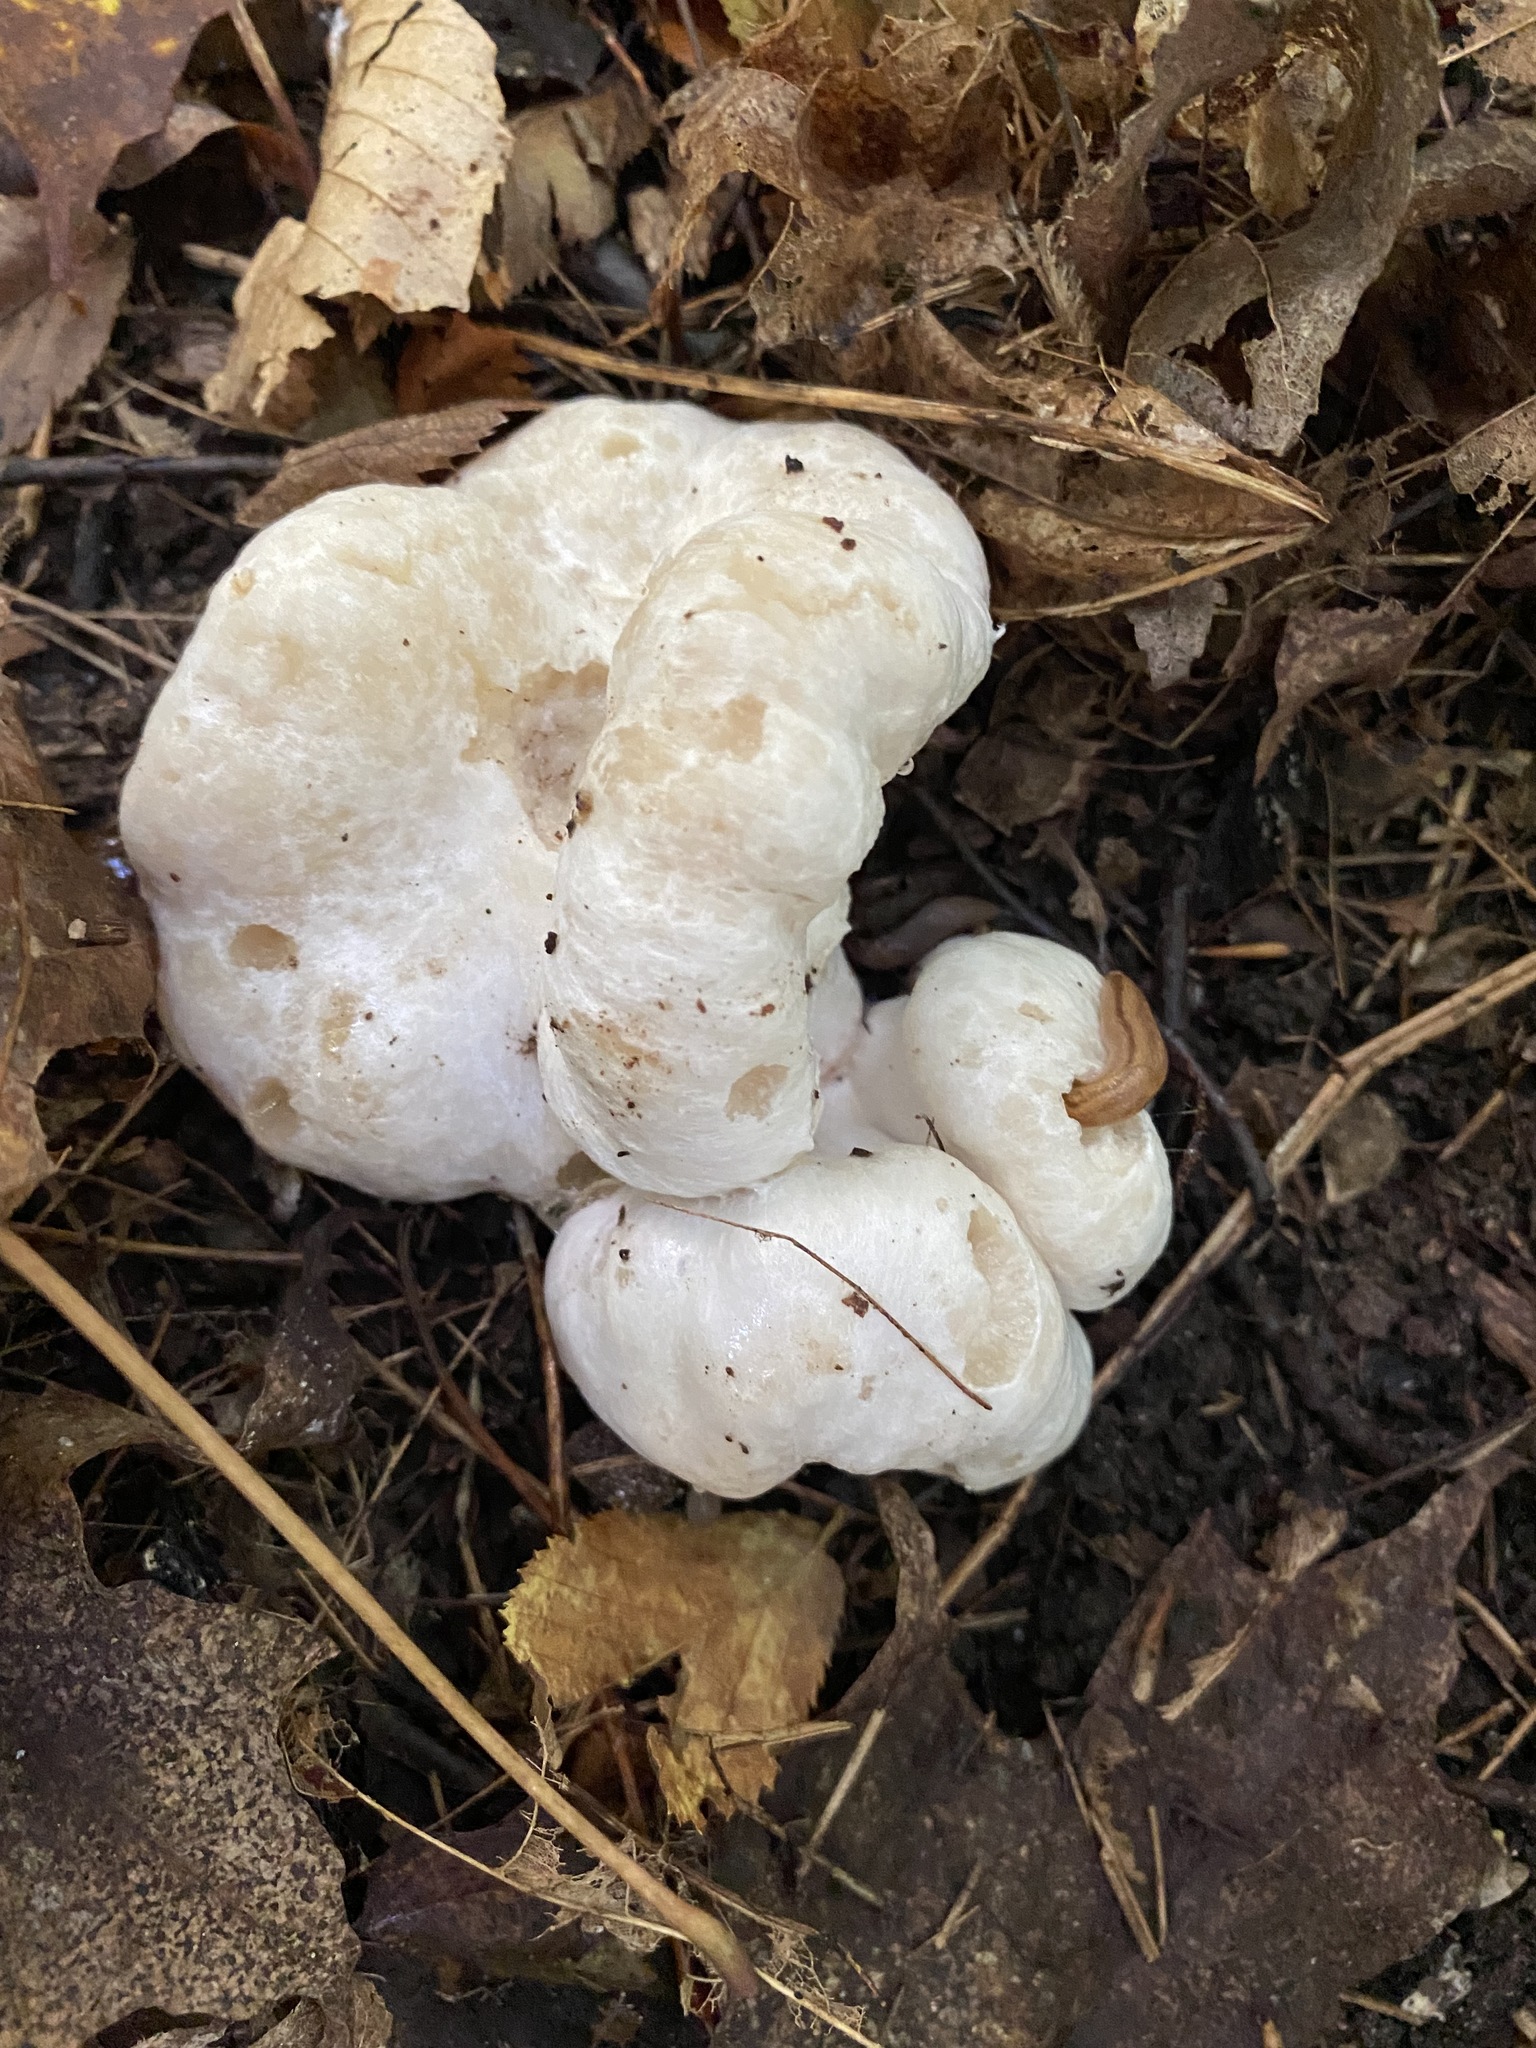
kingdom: Fungi
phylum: Basidiomycota
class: Agaricomycetes
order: Agaricales
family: Entolomataceae
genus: Entoloma
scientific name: Entoloma abortivum
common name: Aborted entoloma
